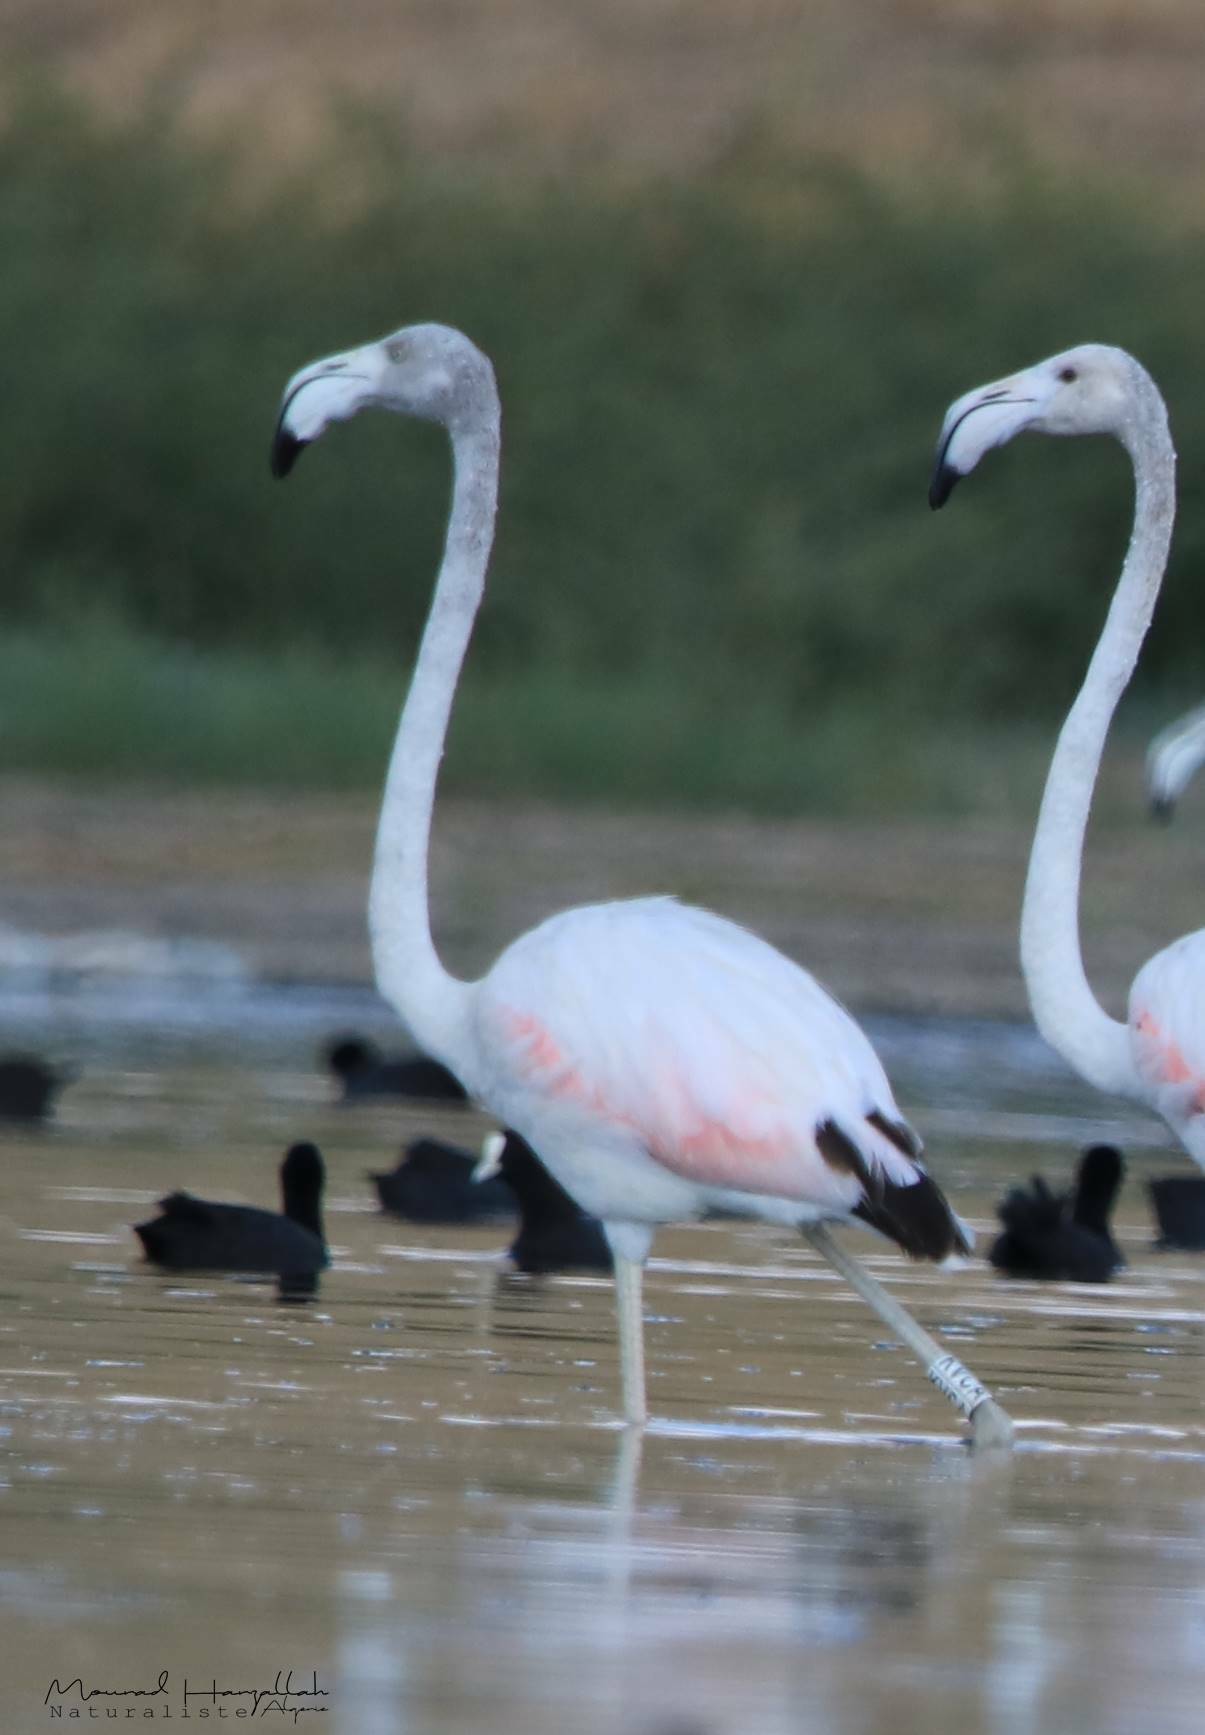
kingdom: Animalia
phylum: Chordata
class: Aves
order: Phoenicopteriformes
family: Phoenicopteridae
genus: Phoenicopterus
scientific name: Phoenicopterus roseus
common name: Greater flamingo
